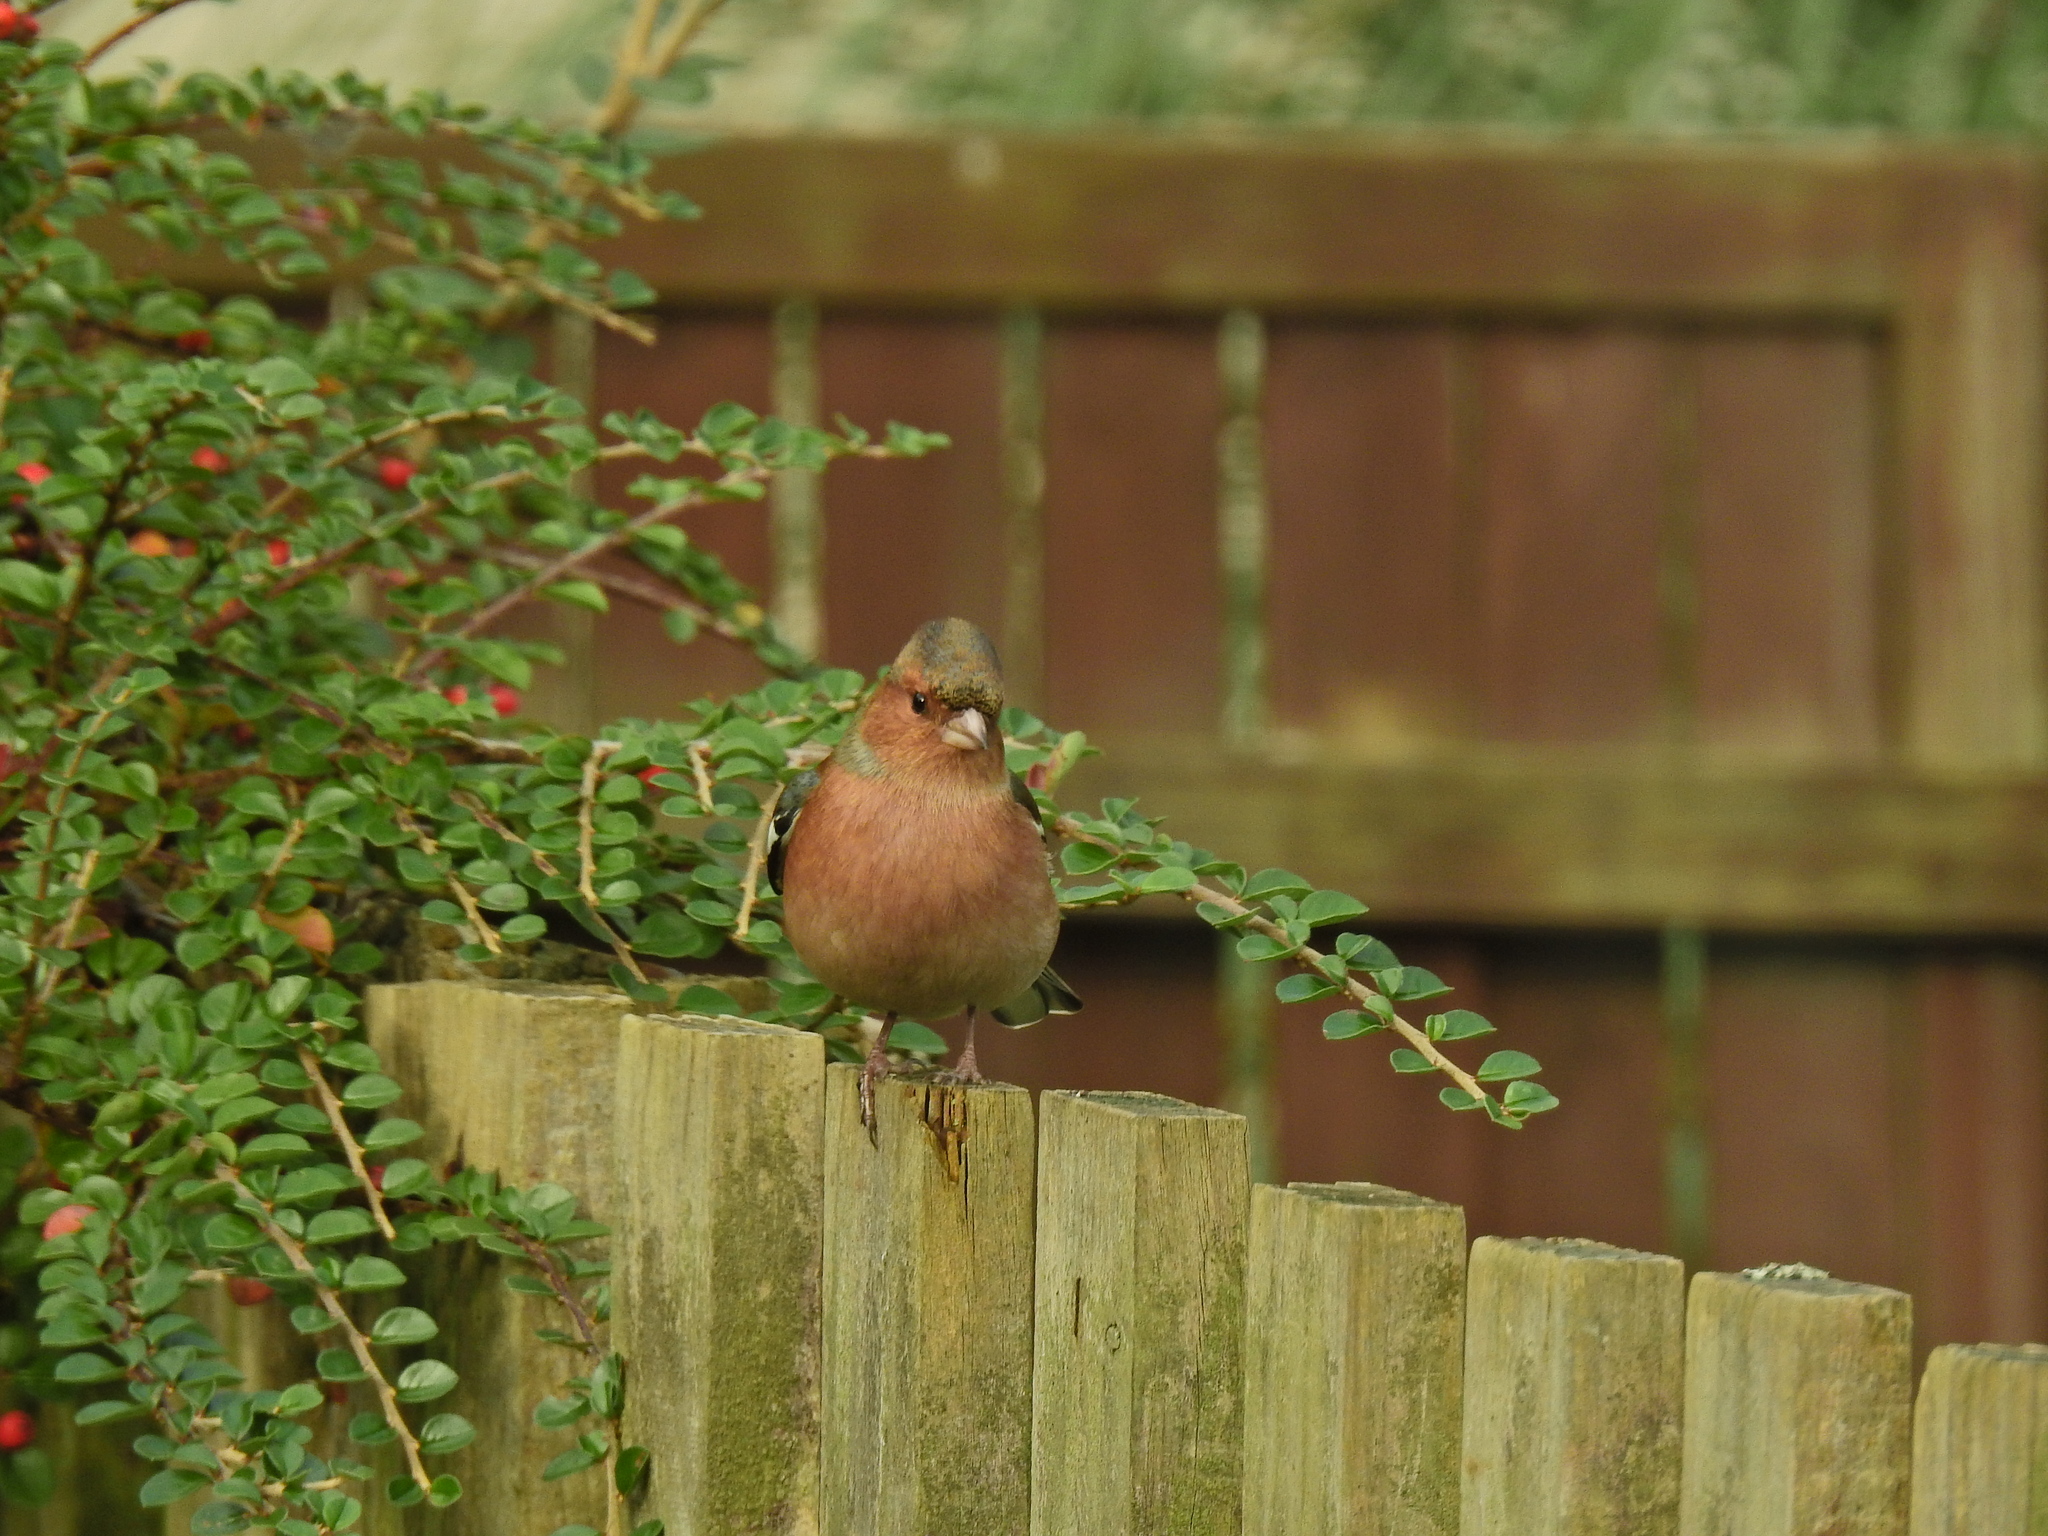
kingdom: Animalia
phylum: Chordata
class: Aves
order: Passeriformes
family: Fringillidae
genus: Fringilla
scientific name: Fringilla coelebs
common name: Common chaffinch
